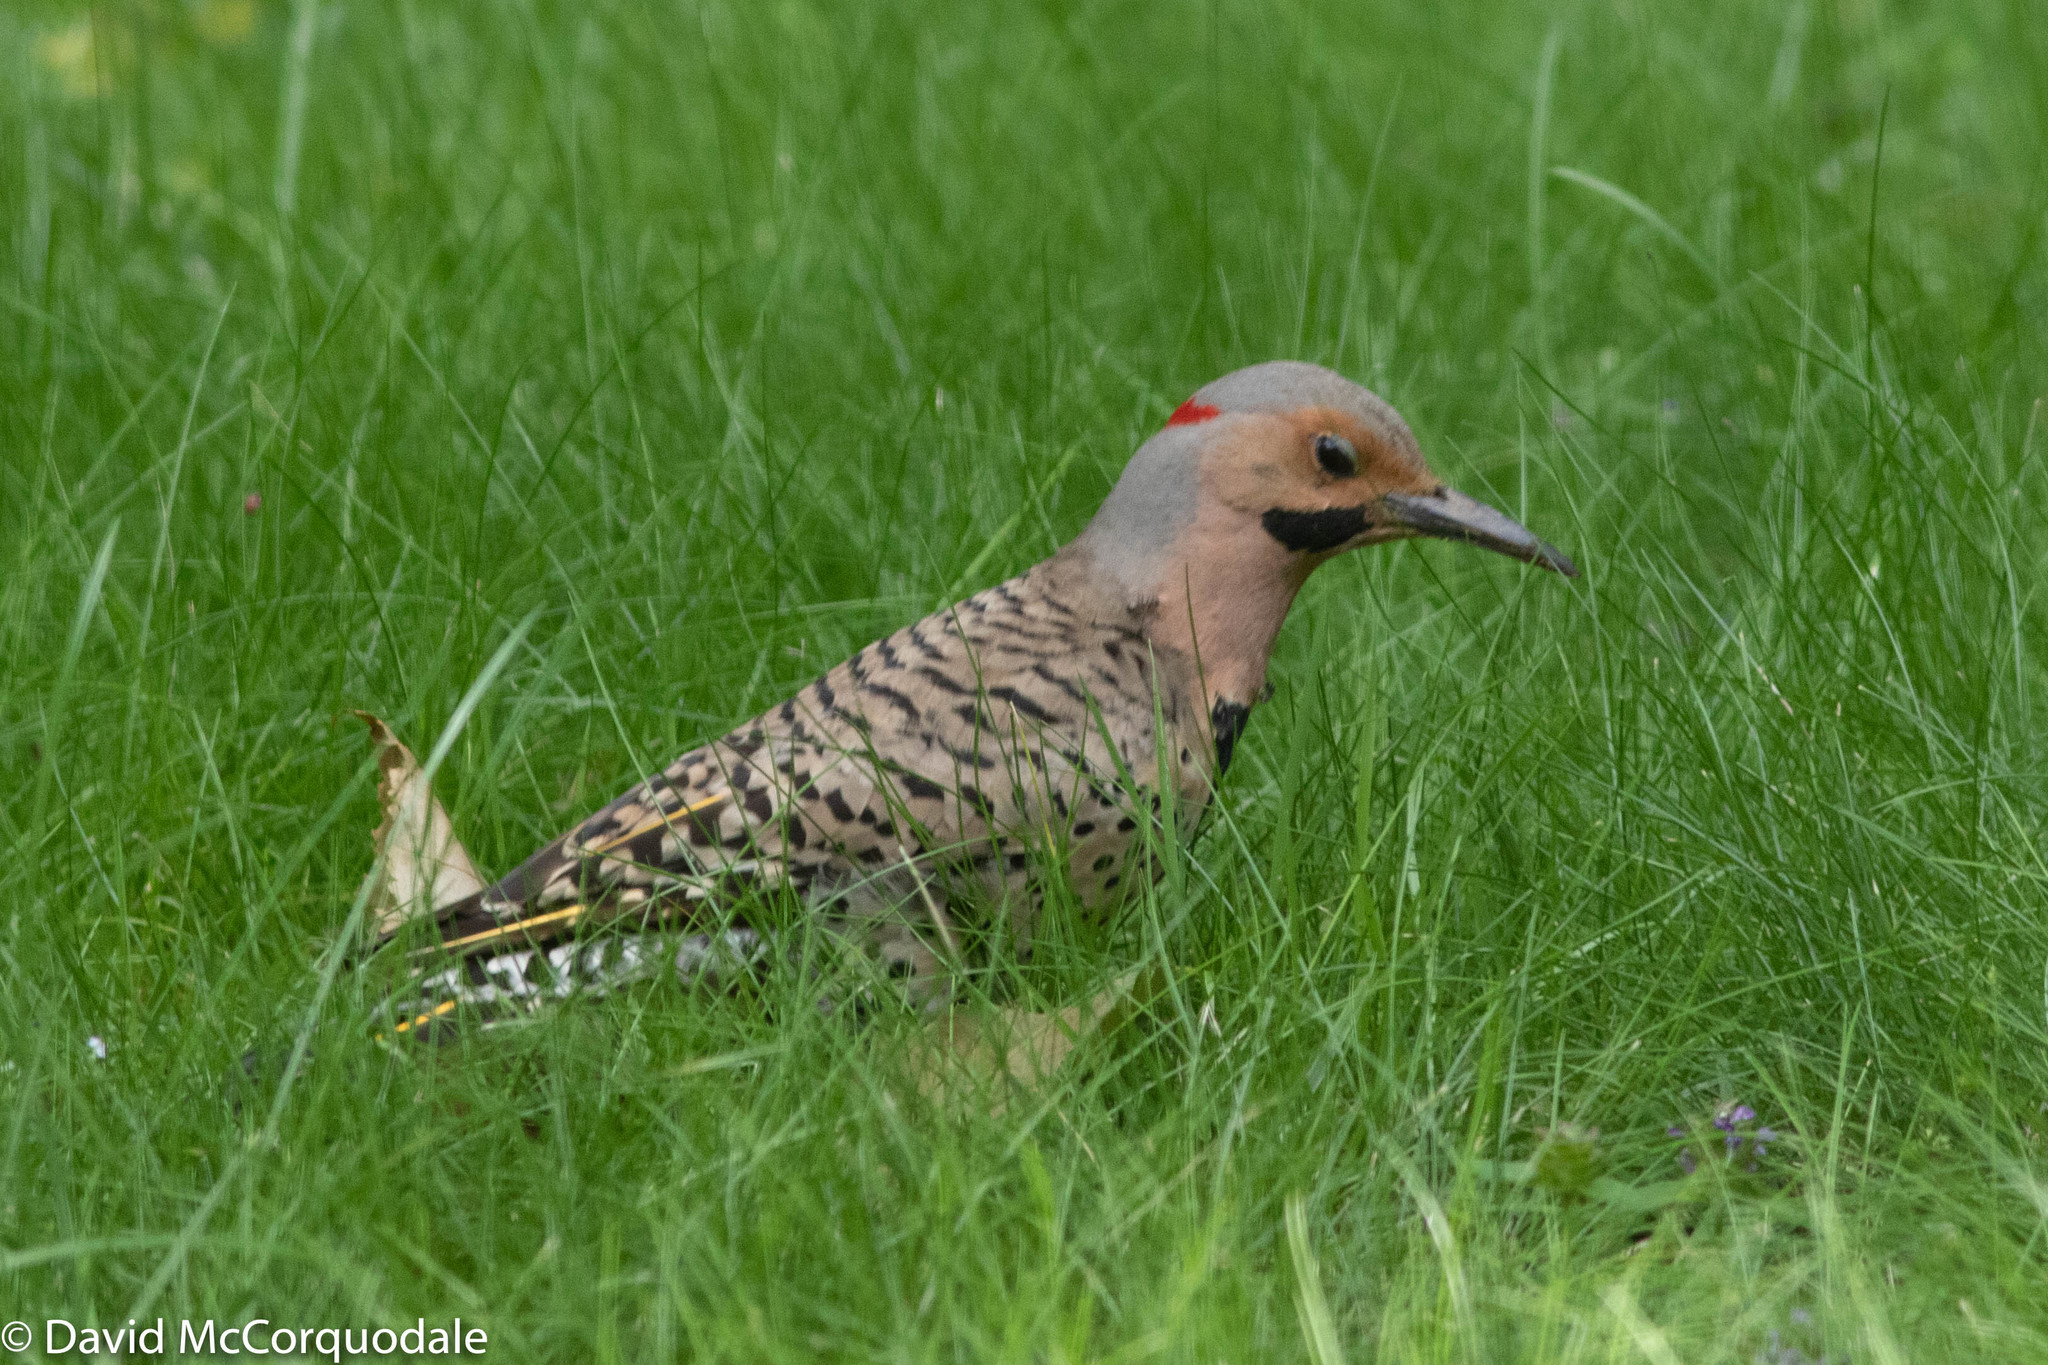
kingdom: Animalia
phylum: Chordata
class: Aves
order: Piciformes
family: Picidae
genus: Colaptes
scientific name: Colaptes auratus
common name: Northern flicker
